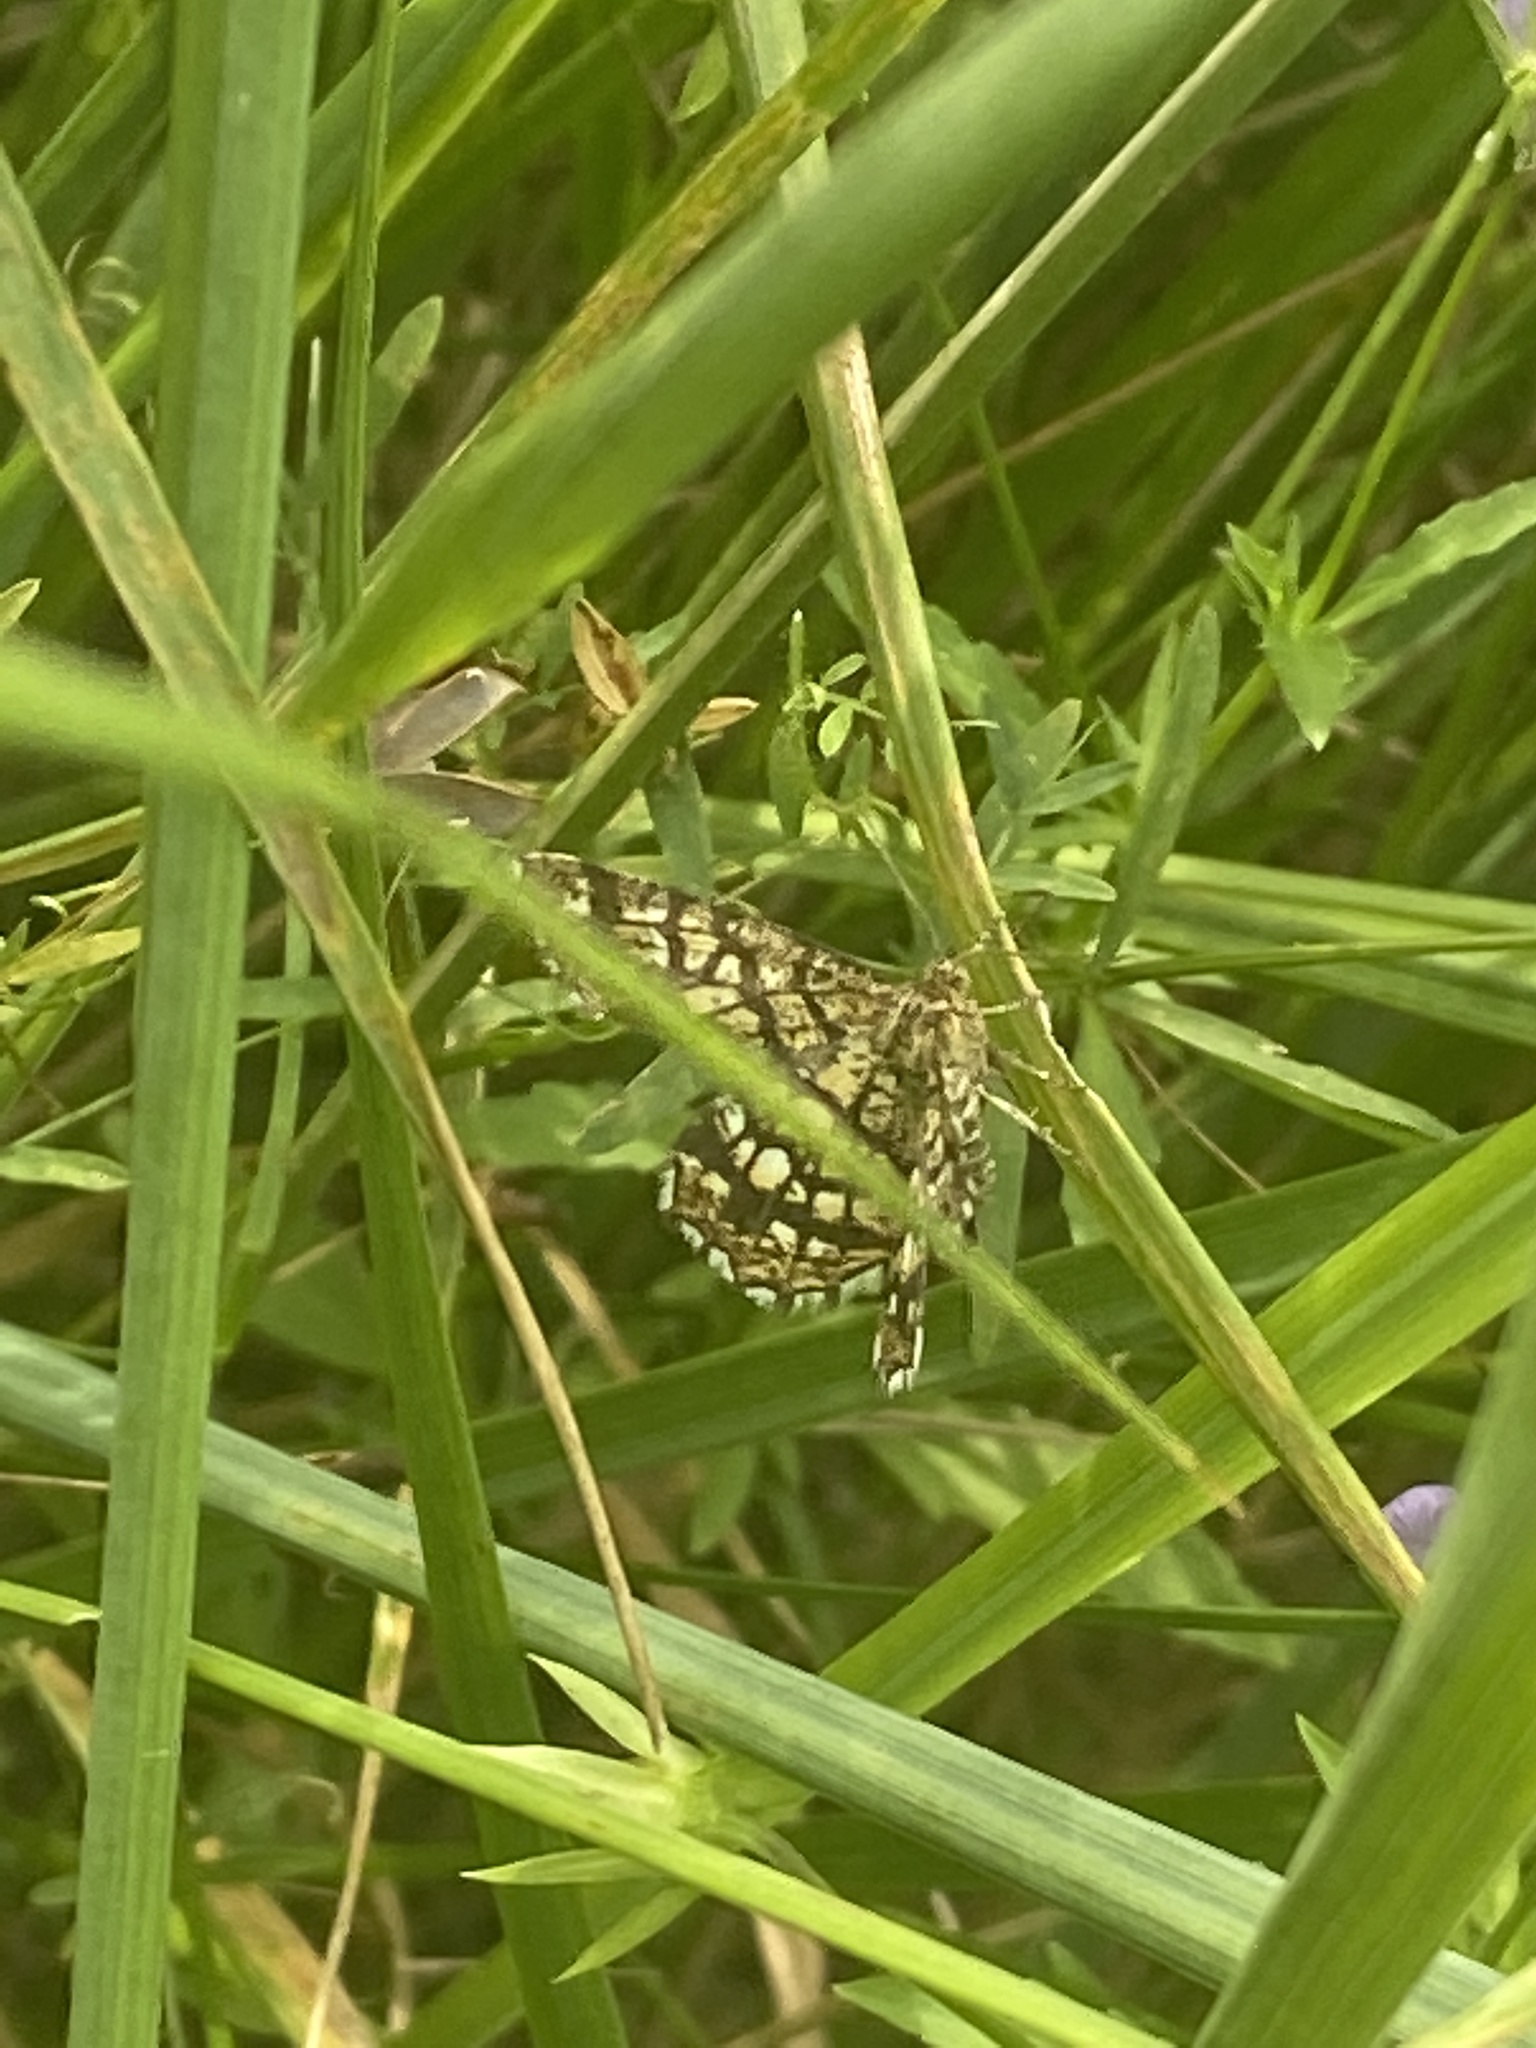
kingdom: Animalia
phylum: Arthropoda
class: Insecta
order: Lepidoptera
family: Geometridae
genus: Chiasmia
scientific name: Chiasmia clathrata
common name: Latticed heath
